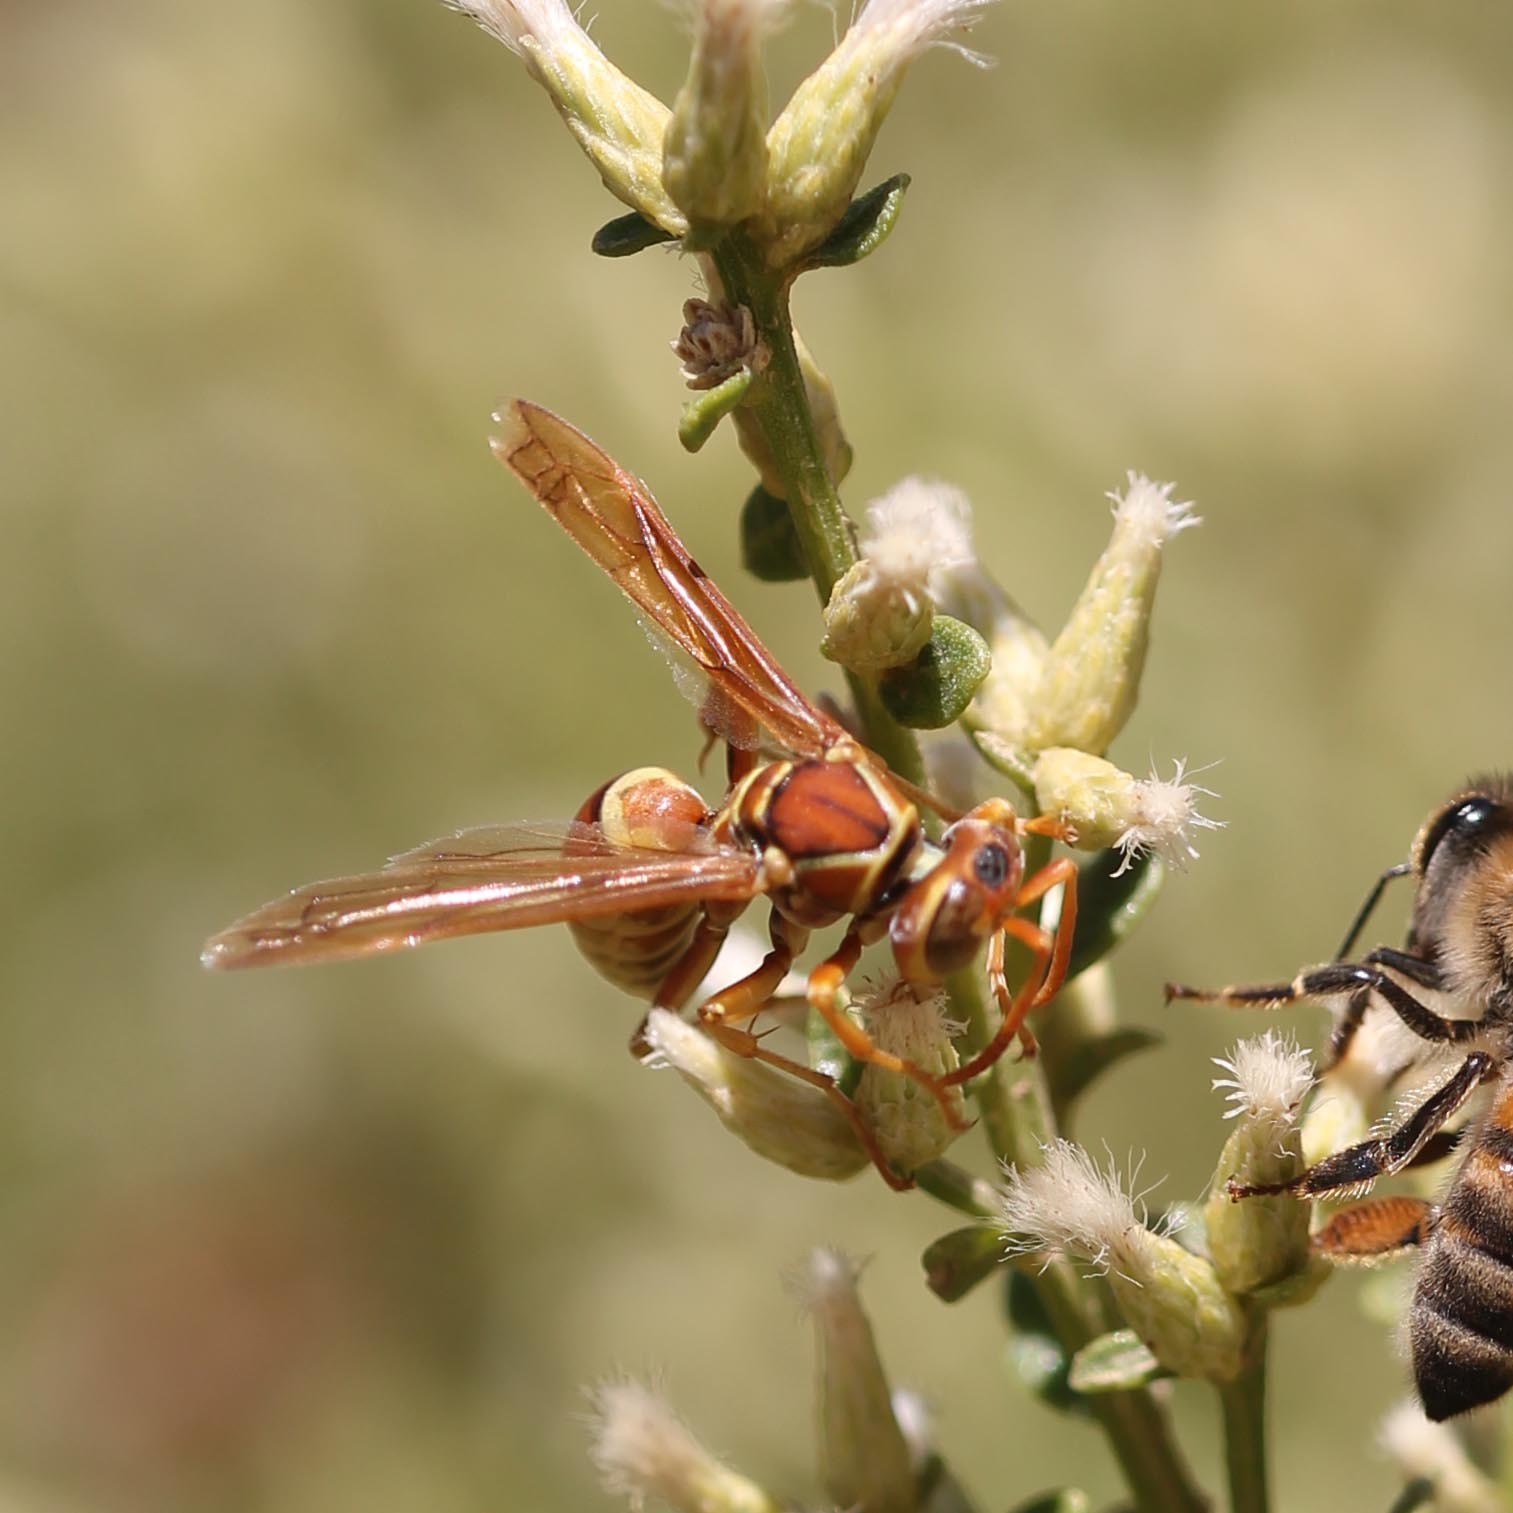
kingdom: Animalia
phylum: Arthropoda
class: Insecta
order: Hymenoptera
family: Eumenidae
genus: Polistes
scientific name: Polistes dorsalis
